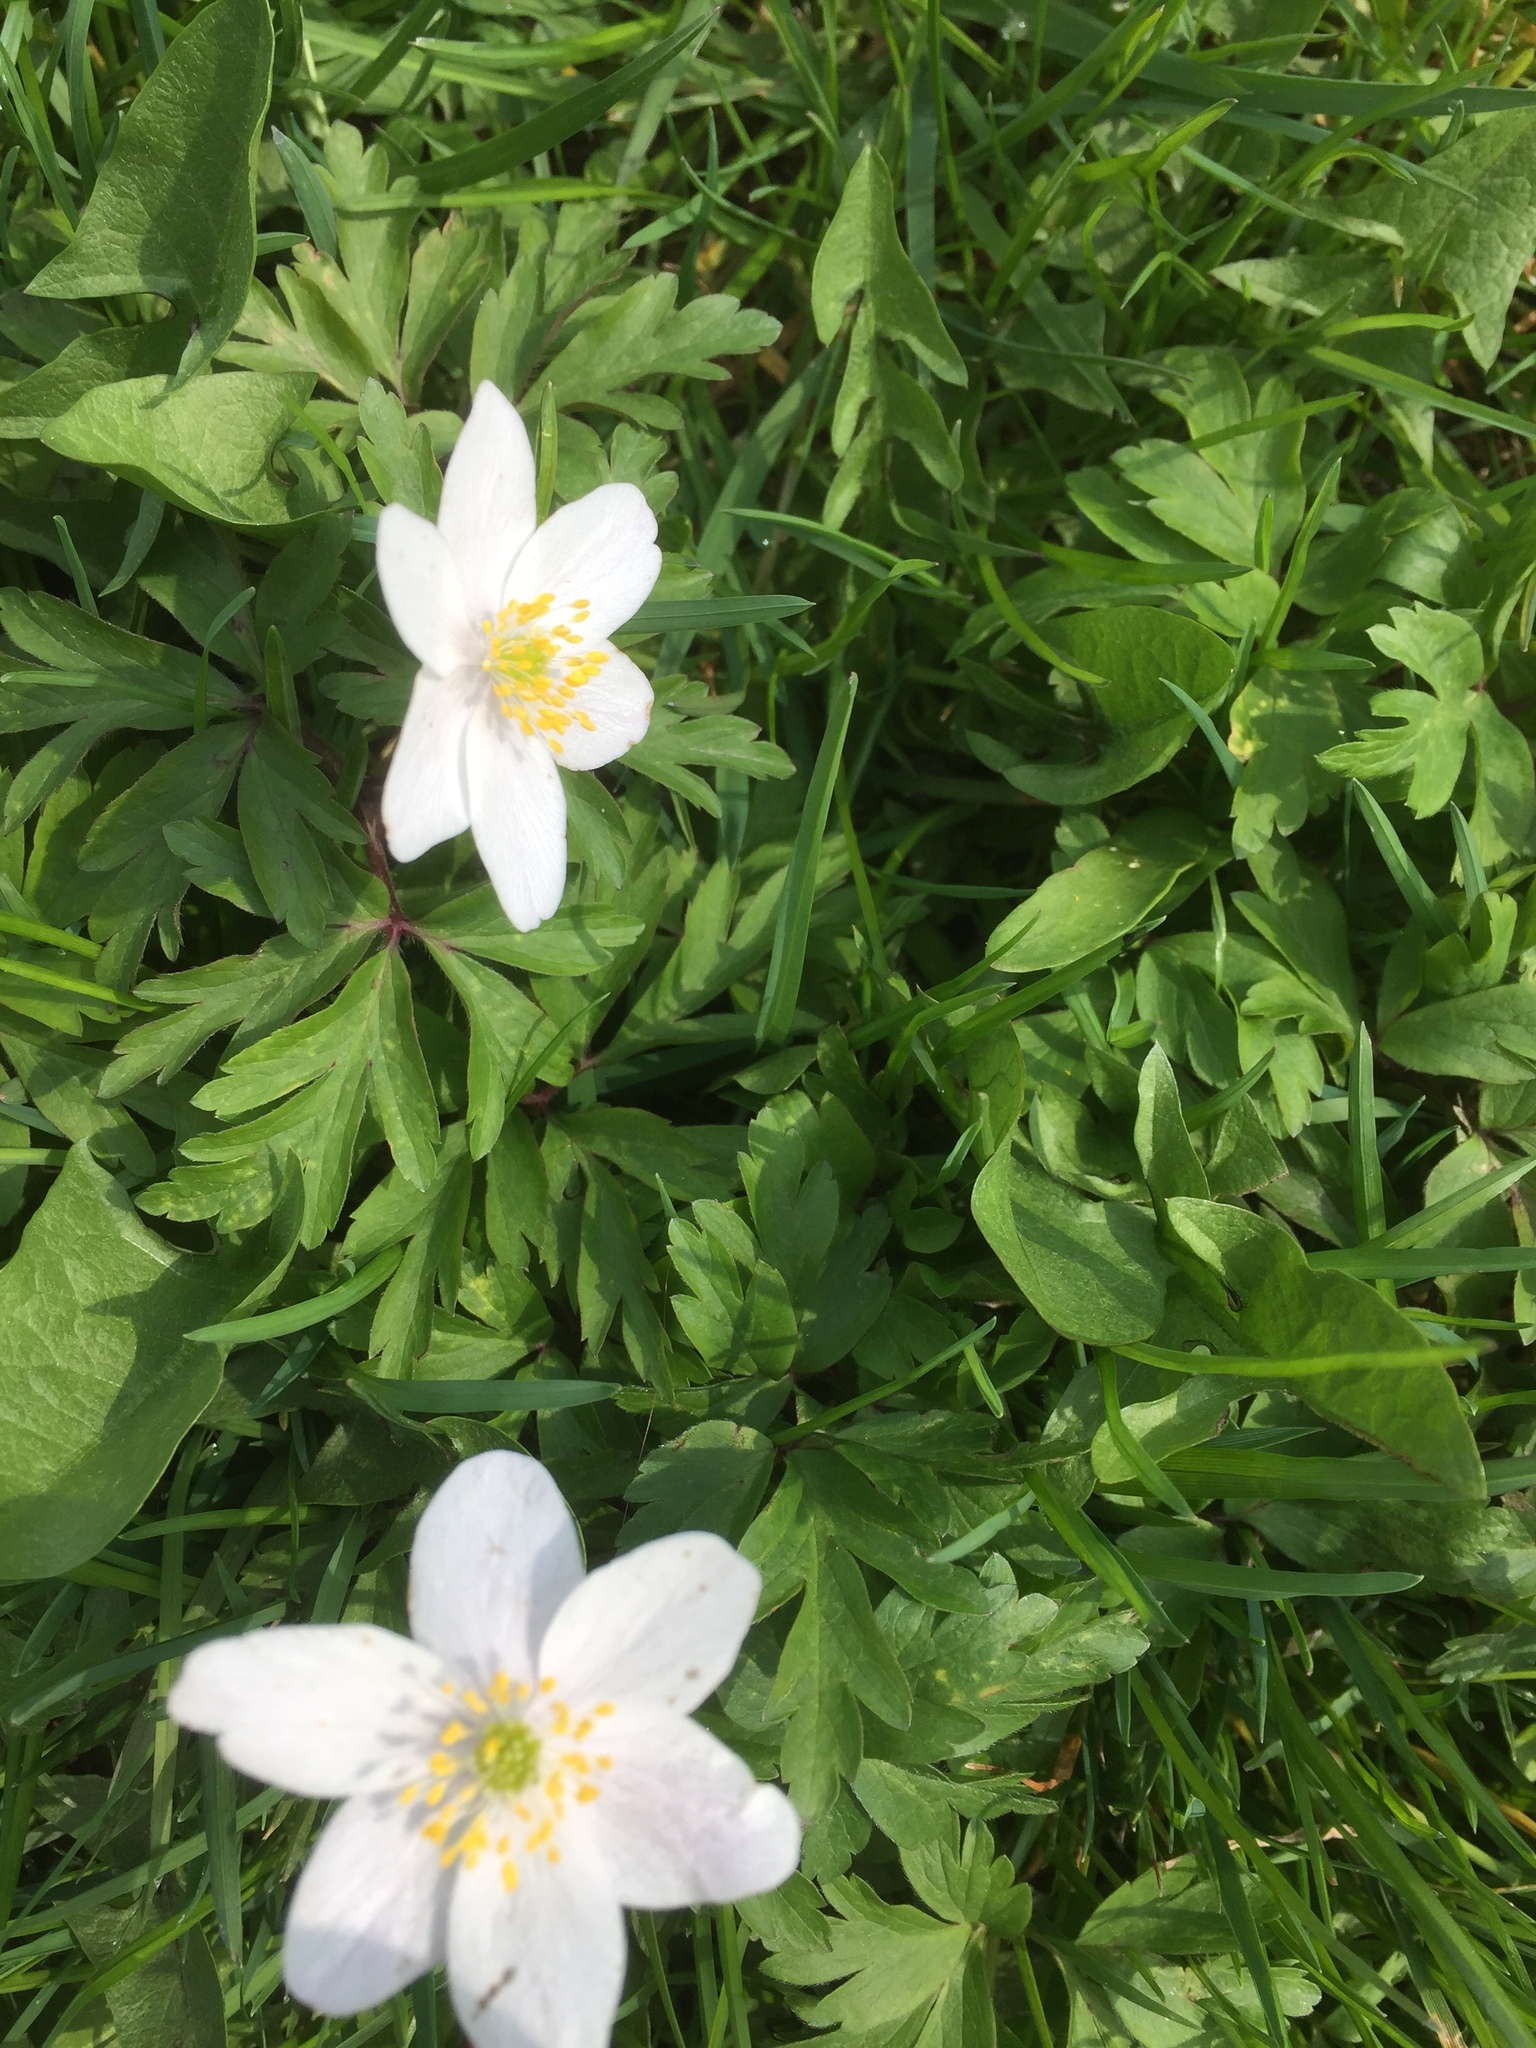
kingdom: Plantae
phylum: Tracheophyta
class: Magnoliopsida
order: Ranunculales
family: Ranunculaceae
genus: Anemone
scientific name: Anemone nemorosa
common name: Wood anemone
